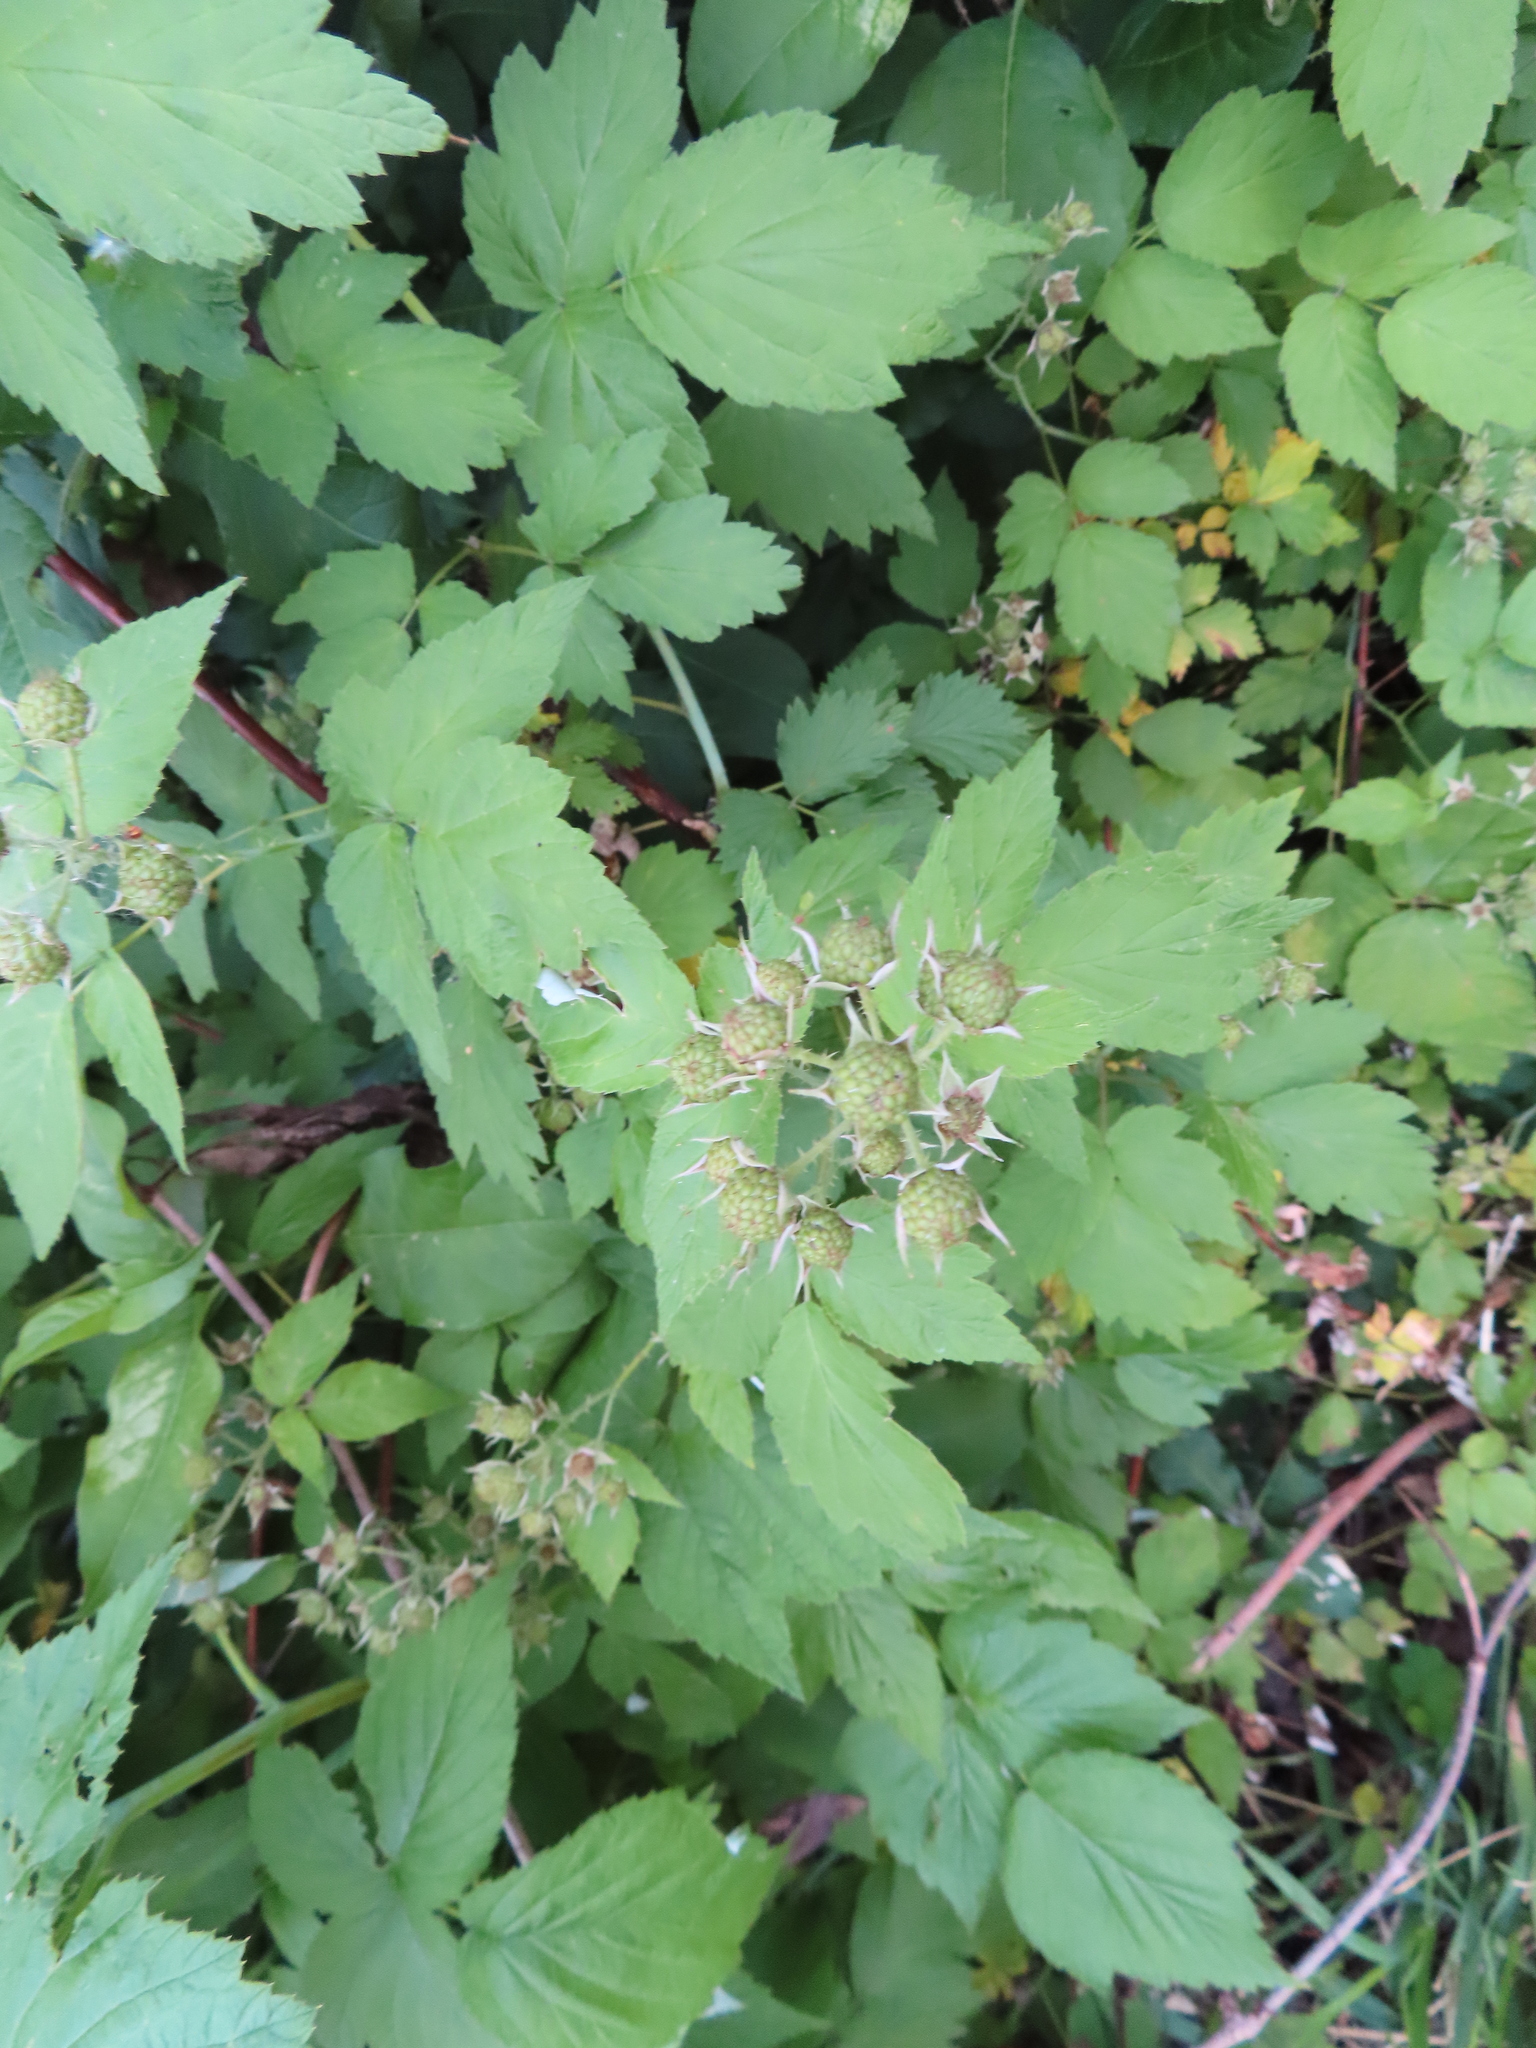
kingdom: Plantae
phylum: Tracheophyta
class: Magnoliopsida
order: Rosales
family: Rosaceae
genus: Rubus
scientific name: Rubus occidentalis
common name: Black raspberry
